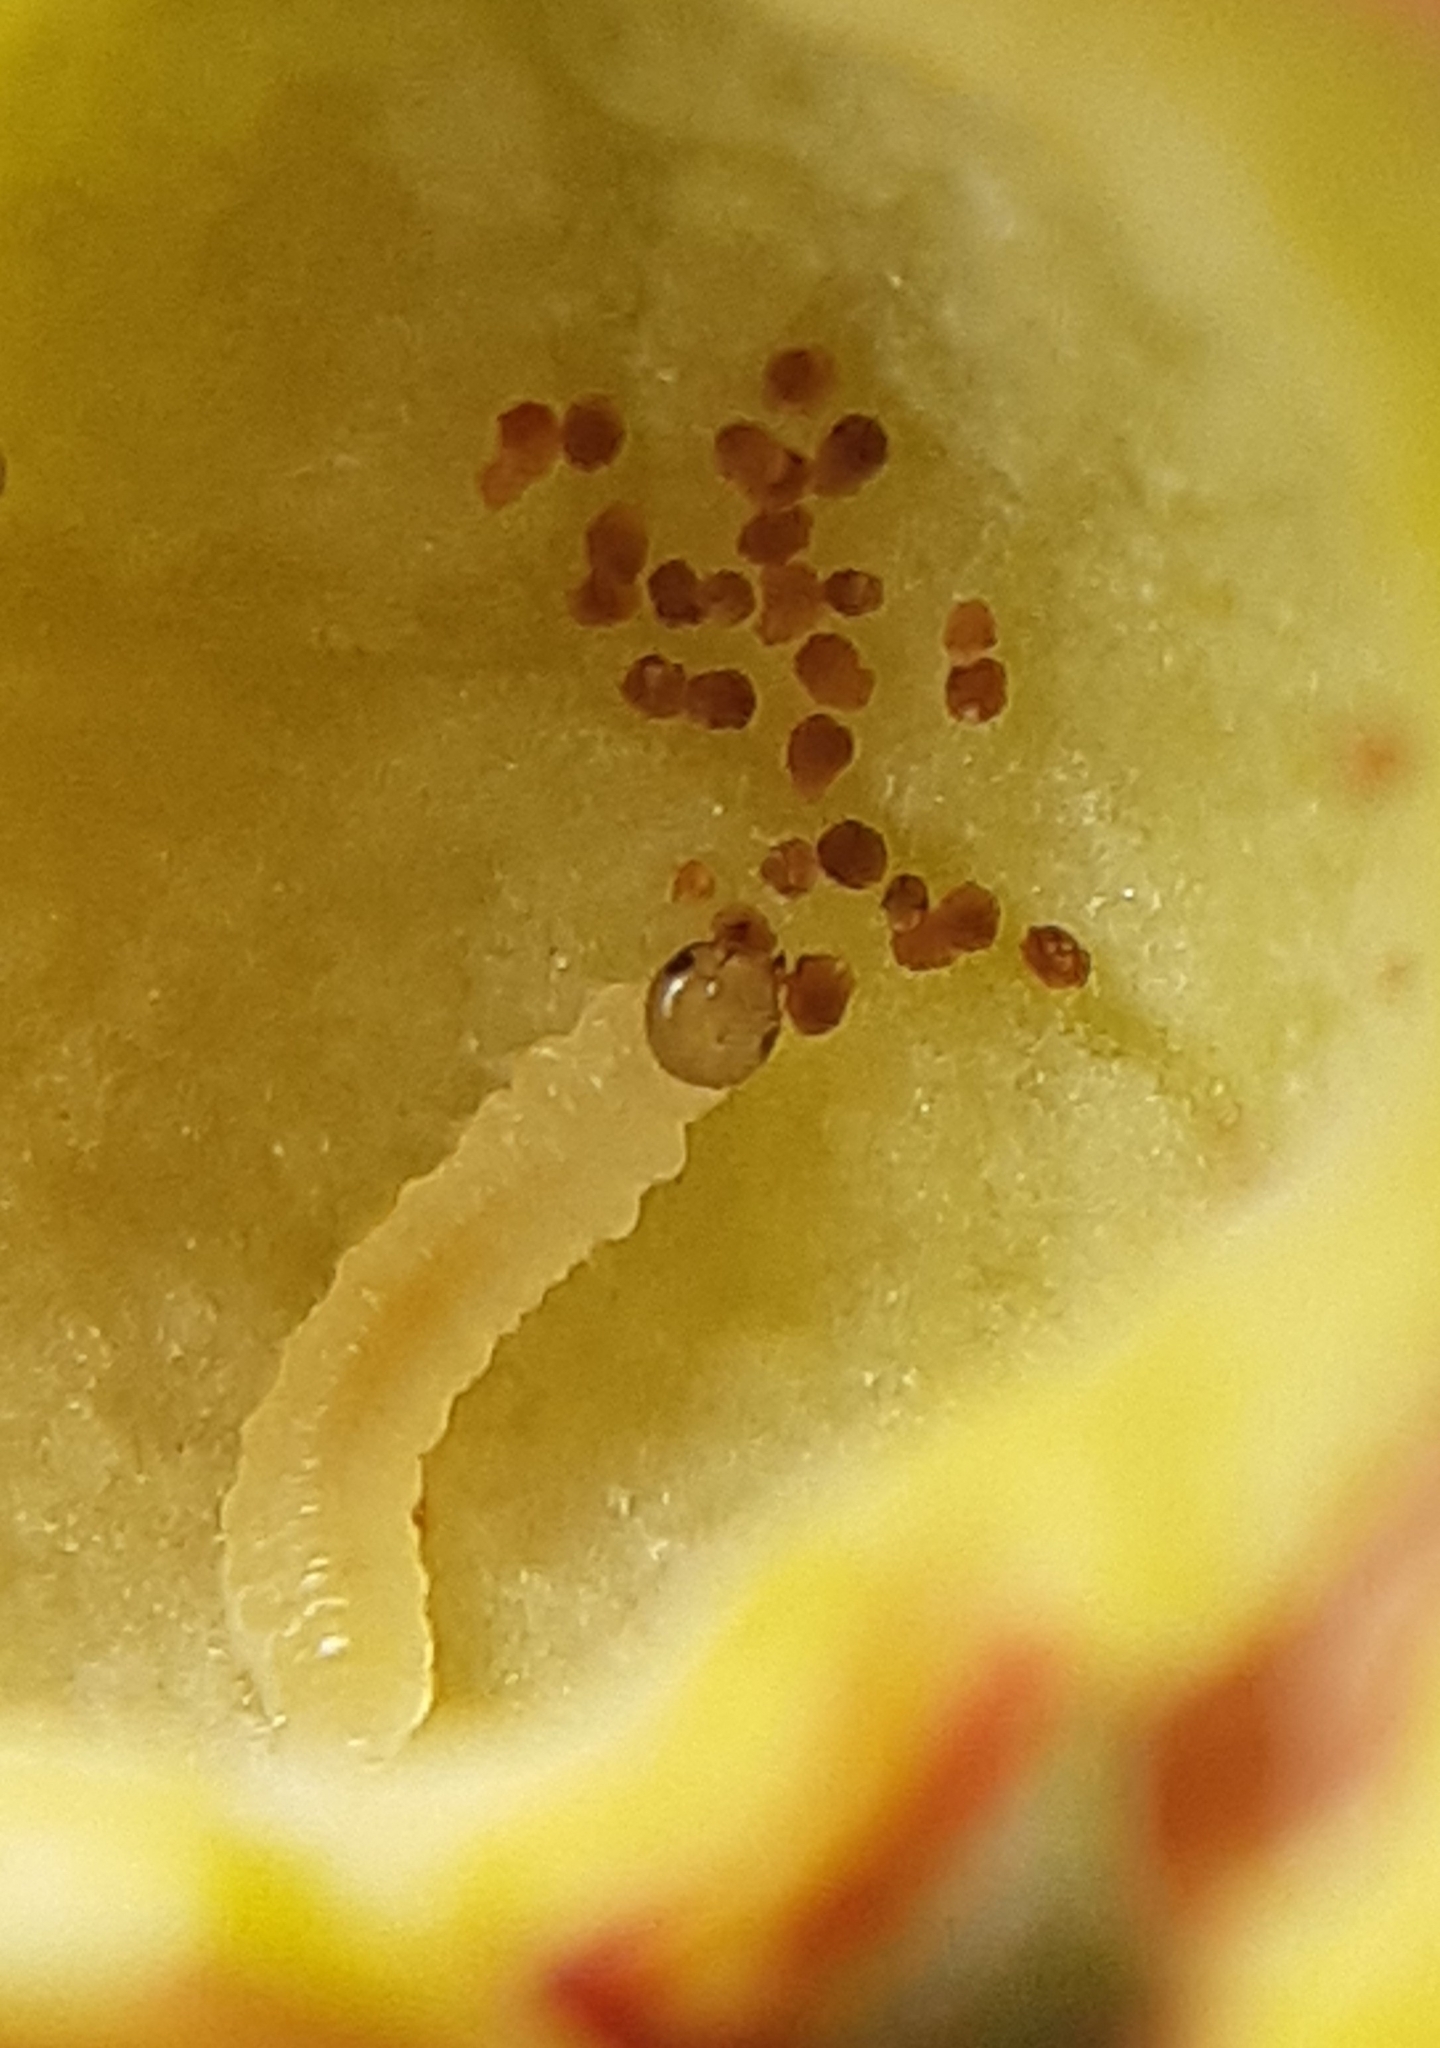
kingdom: Animalia
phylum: Arthropoda
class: Insecta
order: Hymenoptera
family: Tenthredinidae
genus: Euura
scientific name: Euura viminalis
